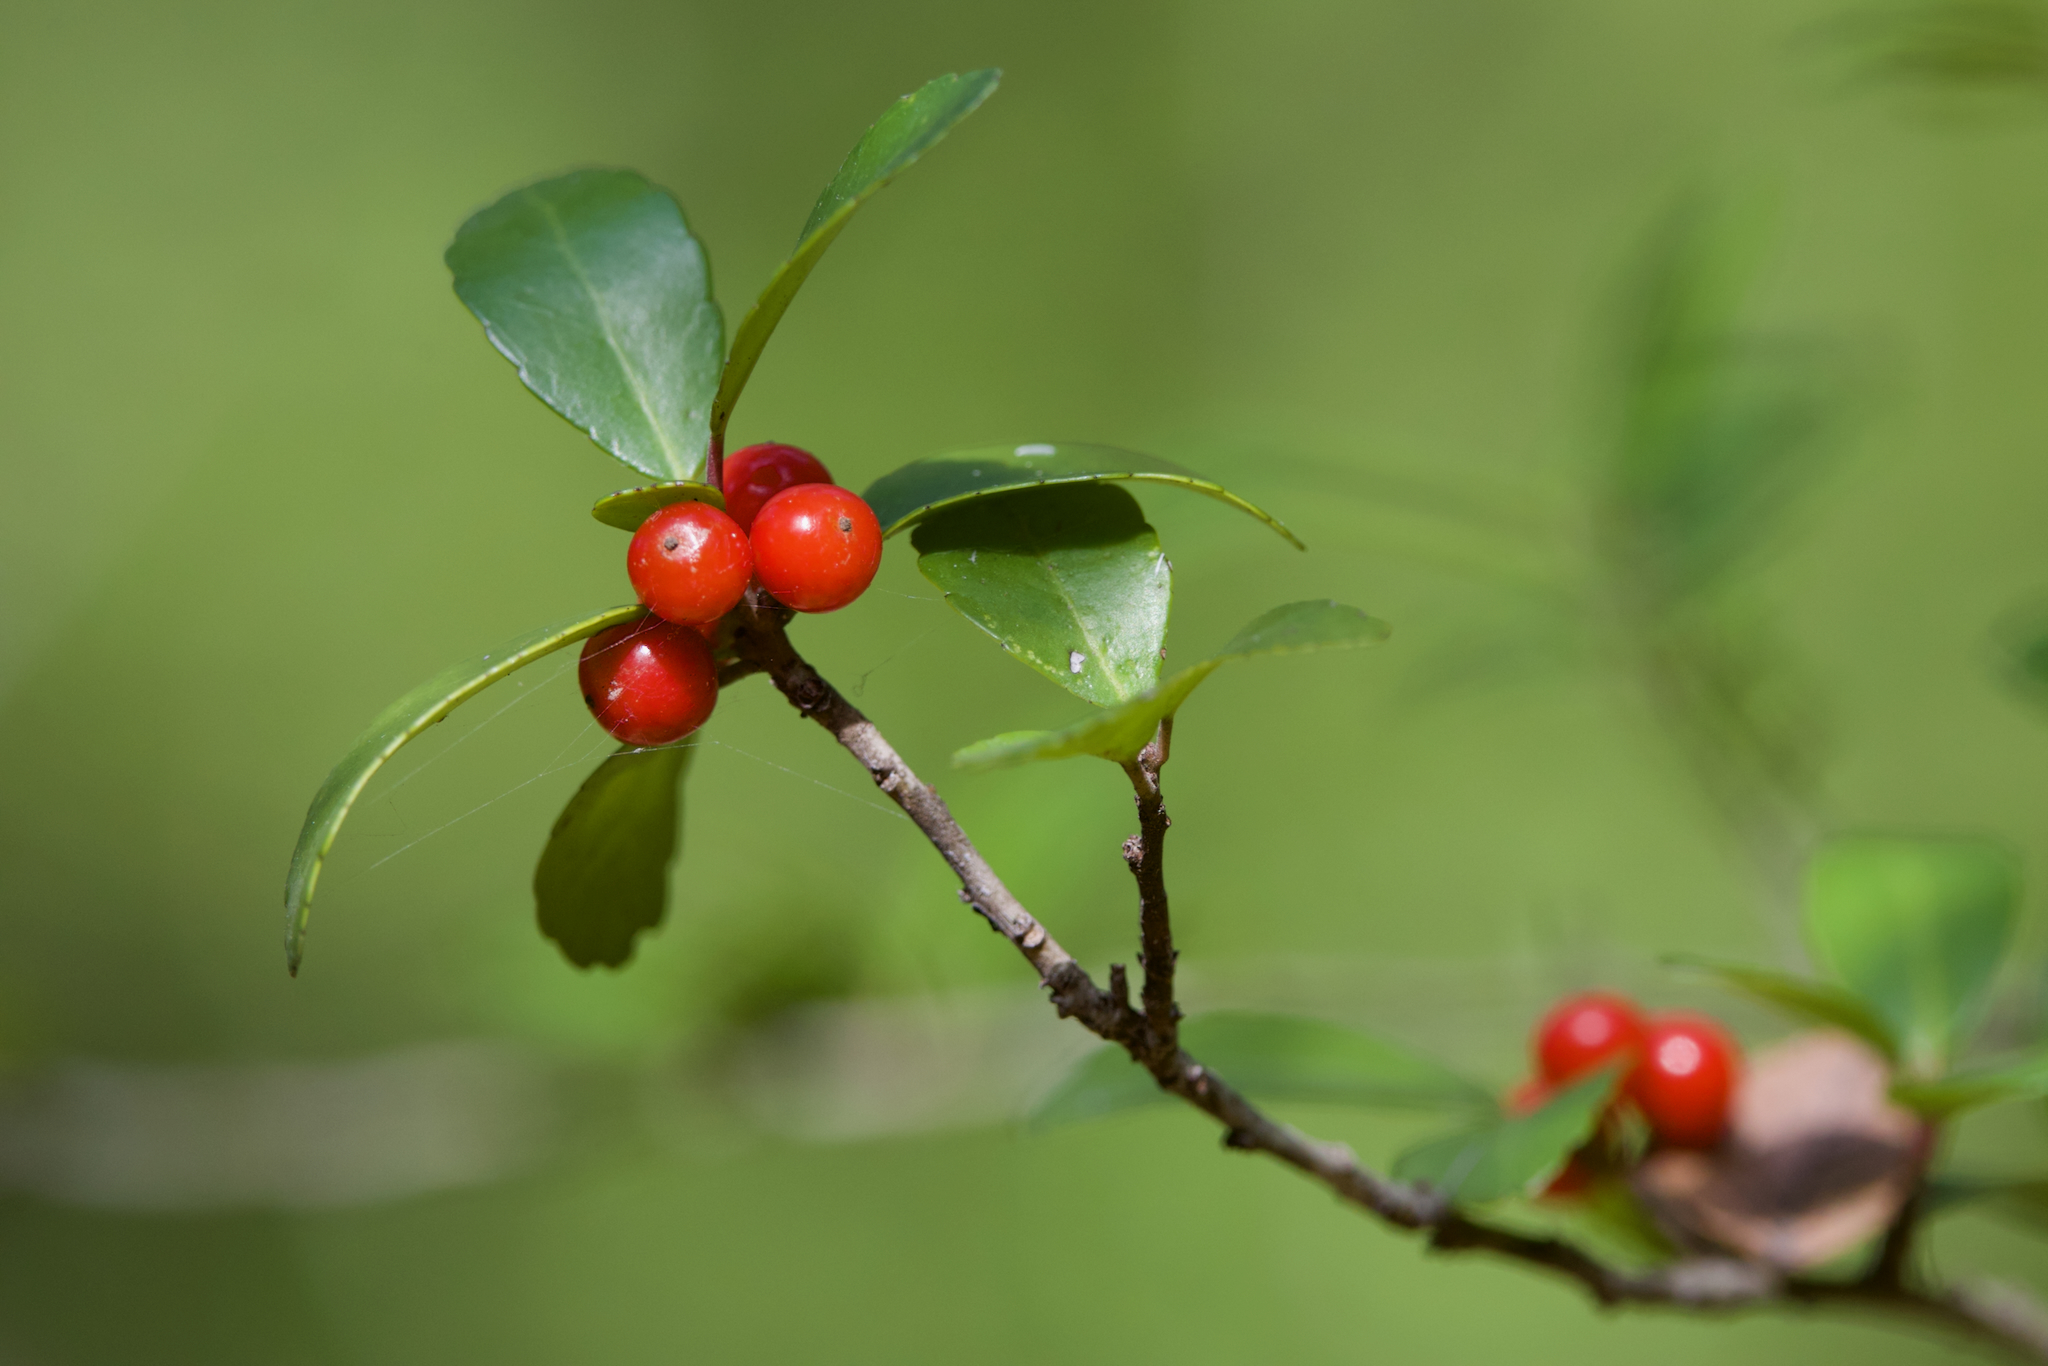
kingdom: Plantae
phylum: Tracheophyta
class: Magnoliopsida
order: Aquifoliales
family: Aquifoliaceae
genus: Ilex
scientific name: Ilex vomitoria
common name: Yaupon holly
